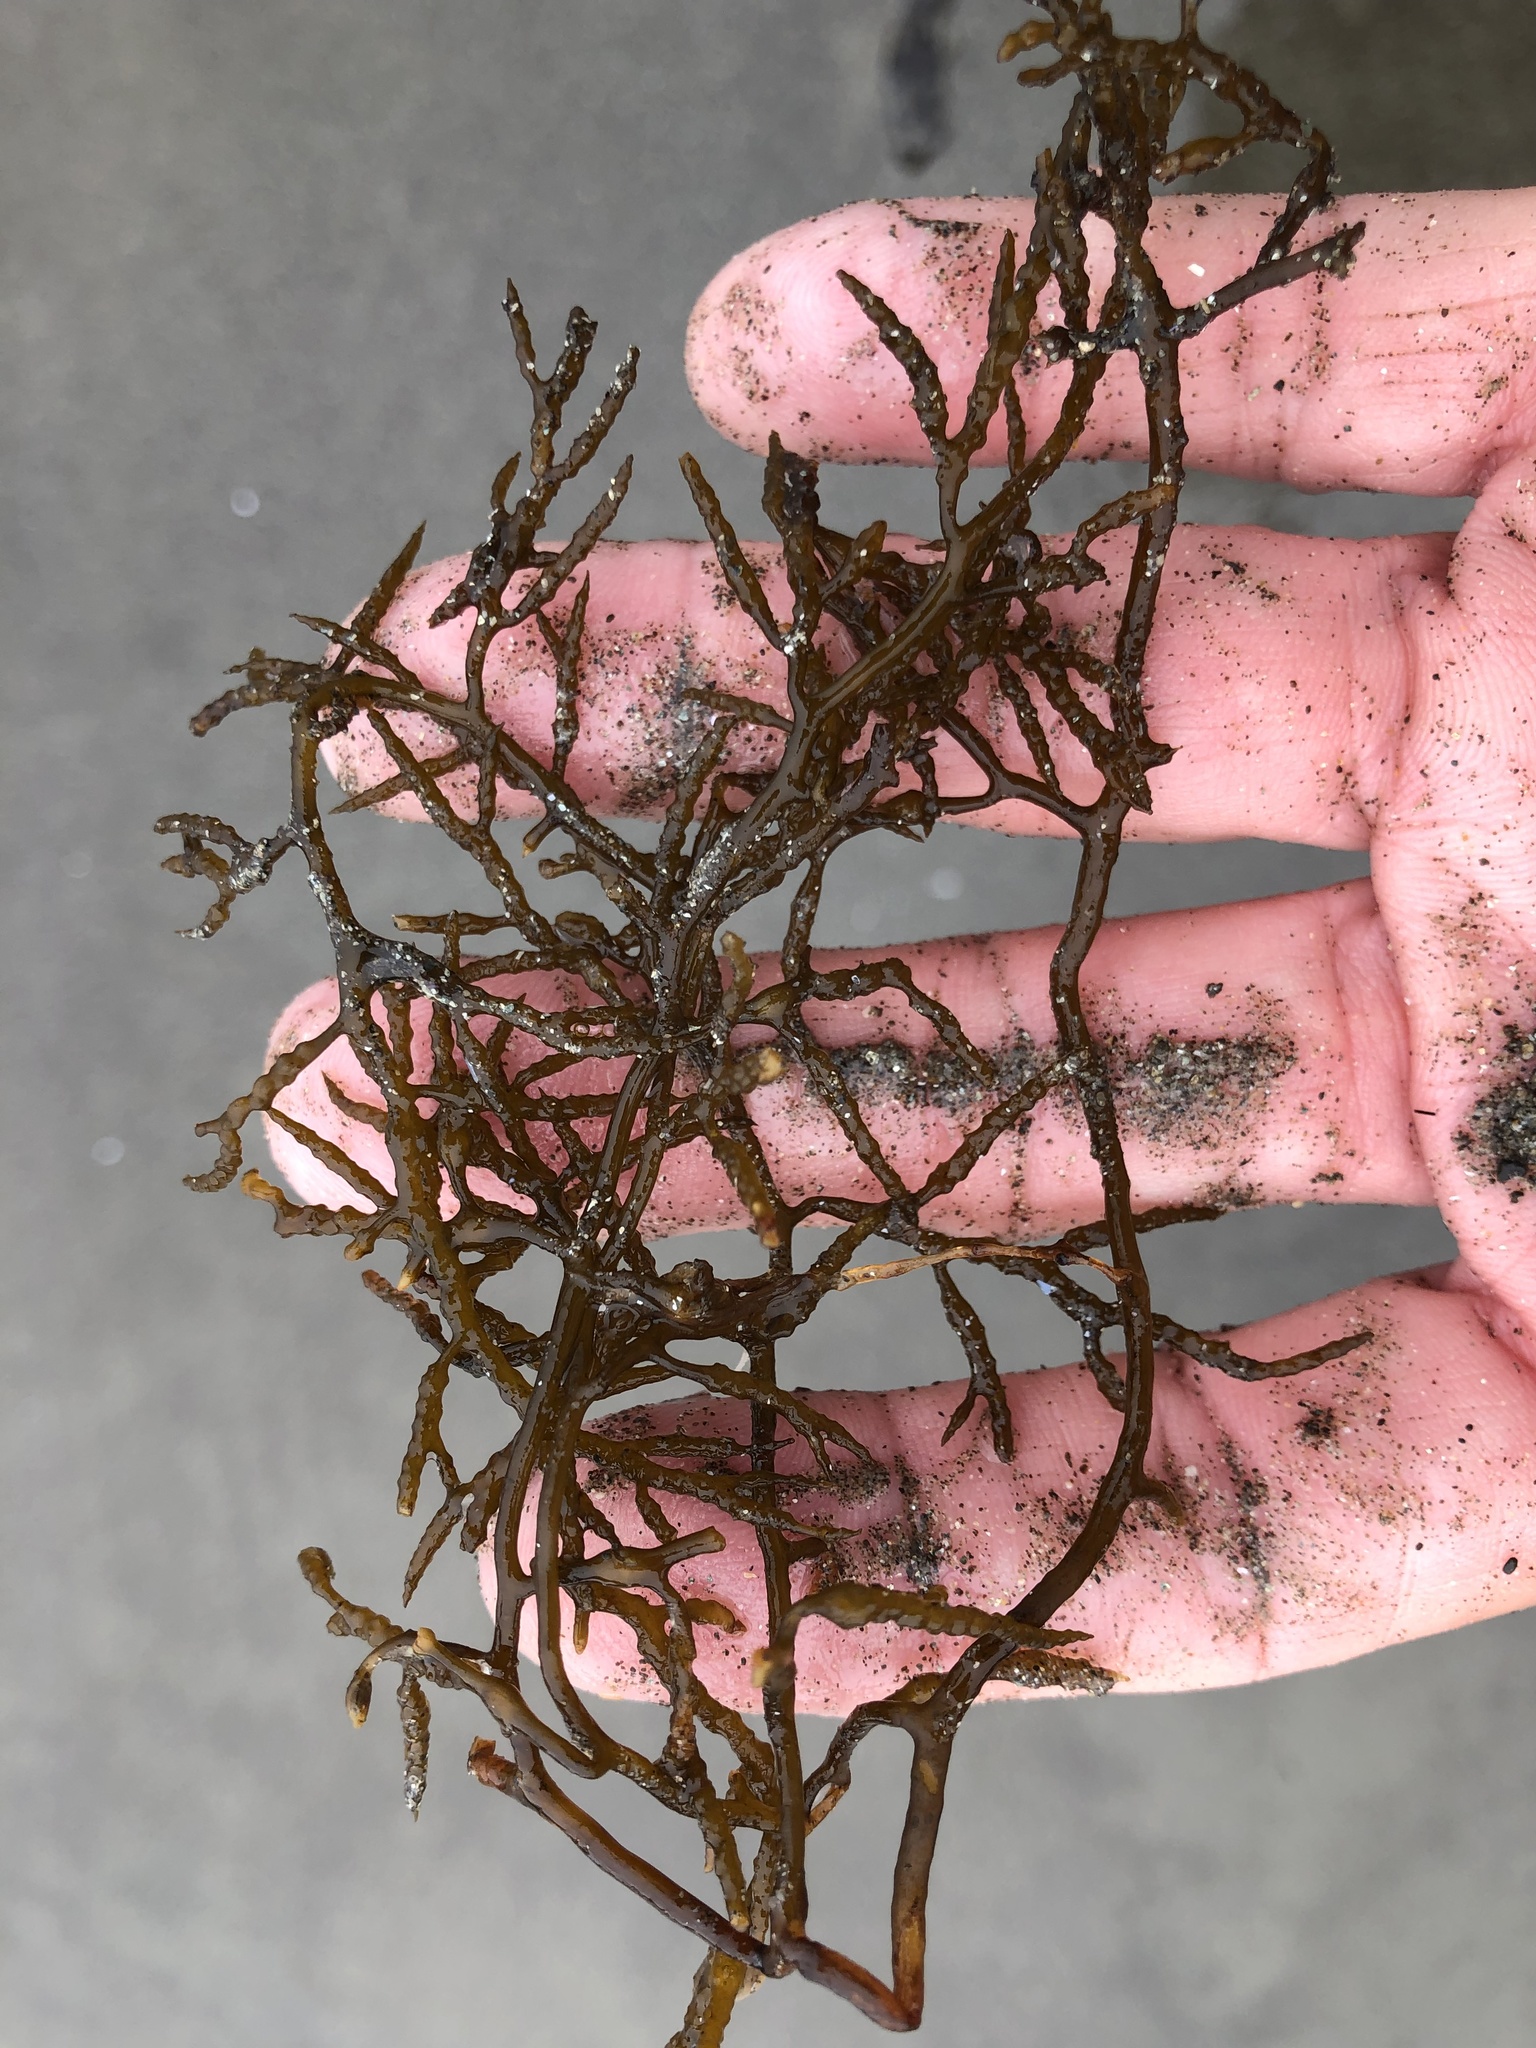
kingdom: Chromista
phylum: Ochrophyta
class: Phaeophyceae
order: Fucales
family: Sargassaceae
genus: Stephanocystis
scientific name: Stephanocystis
